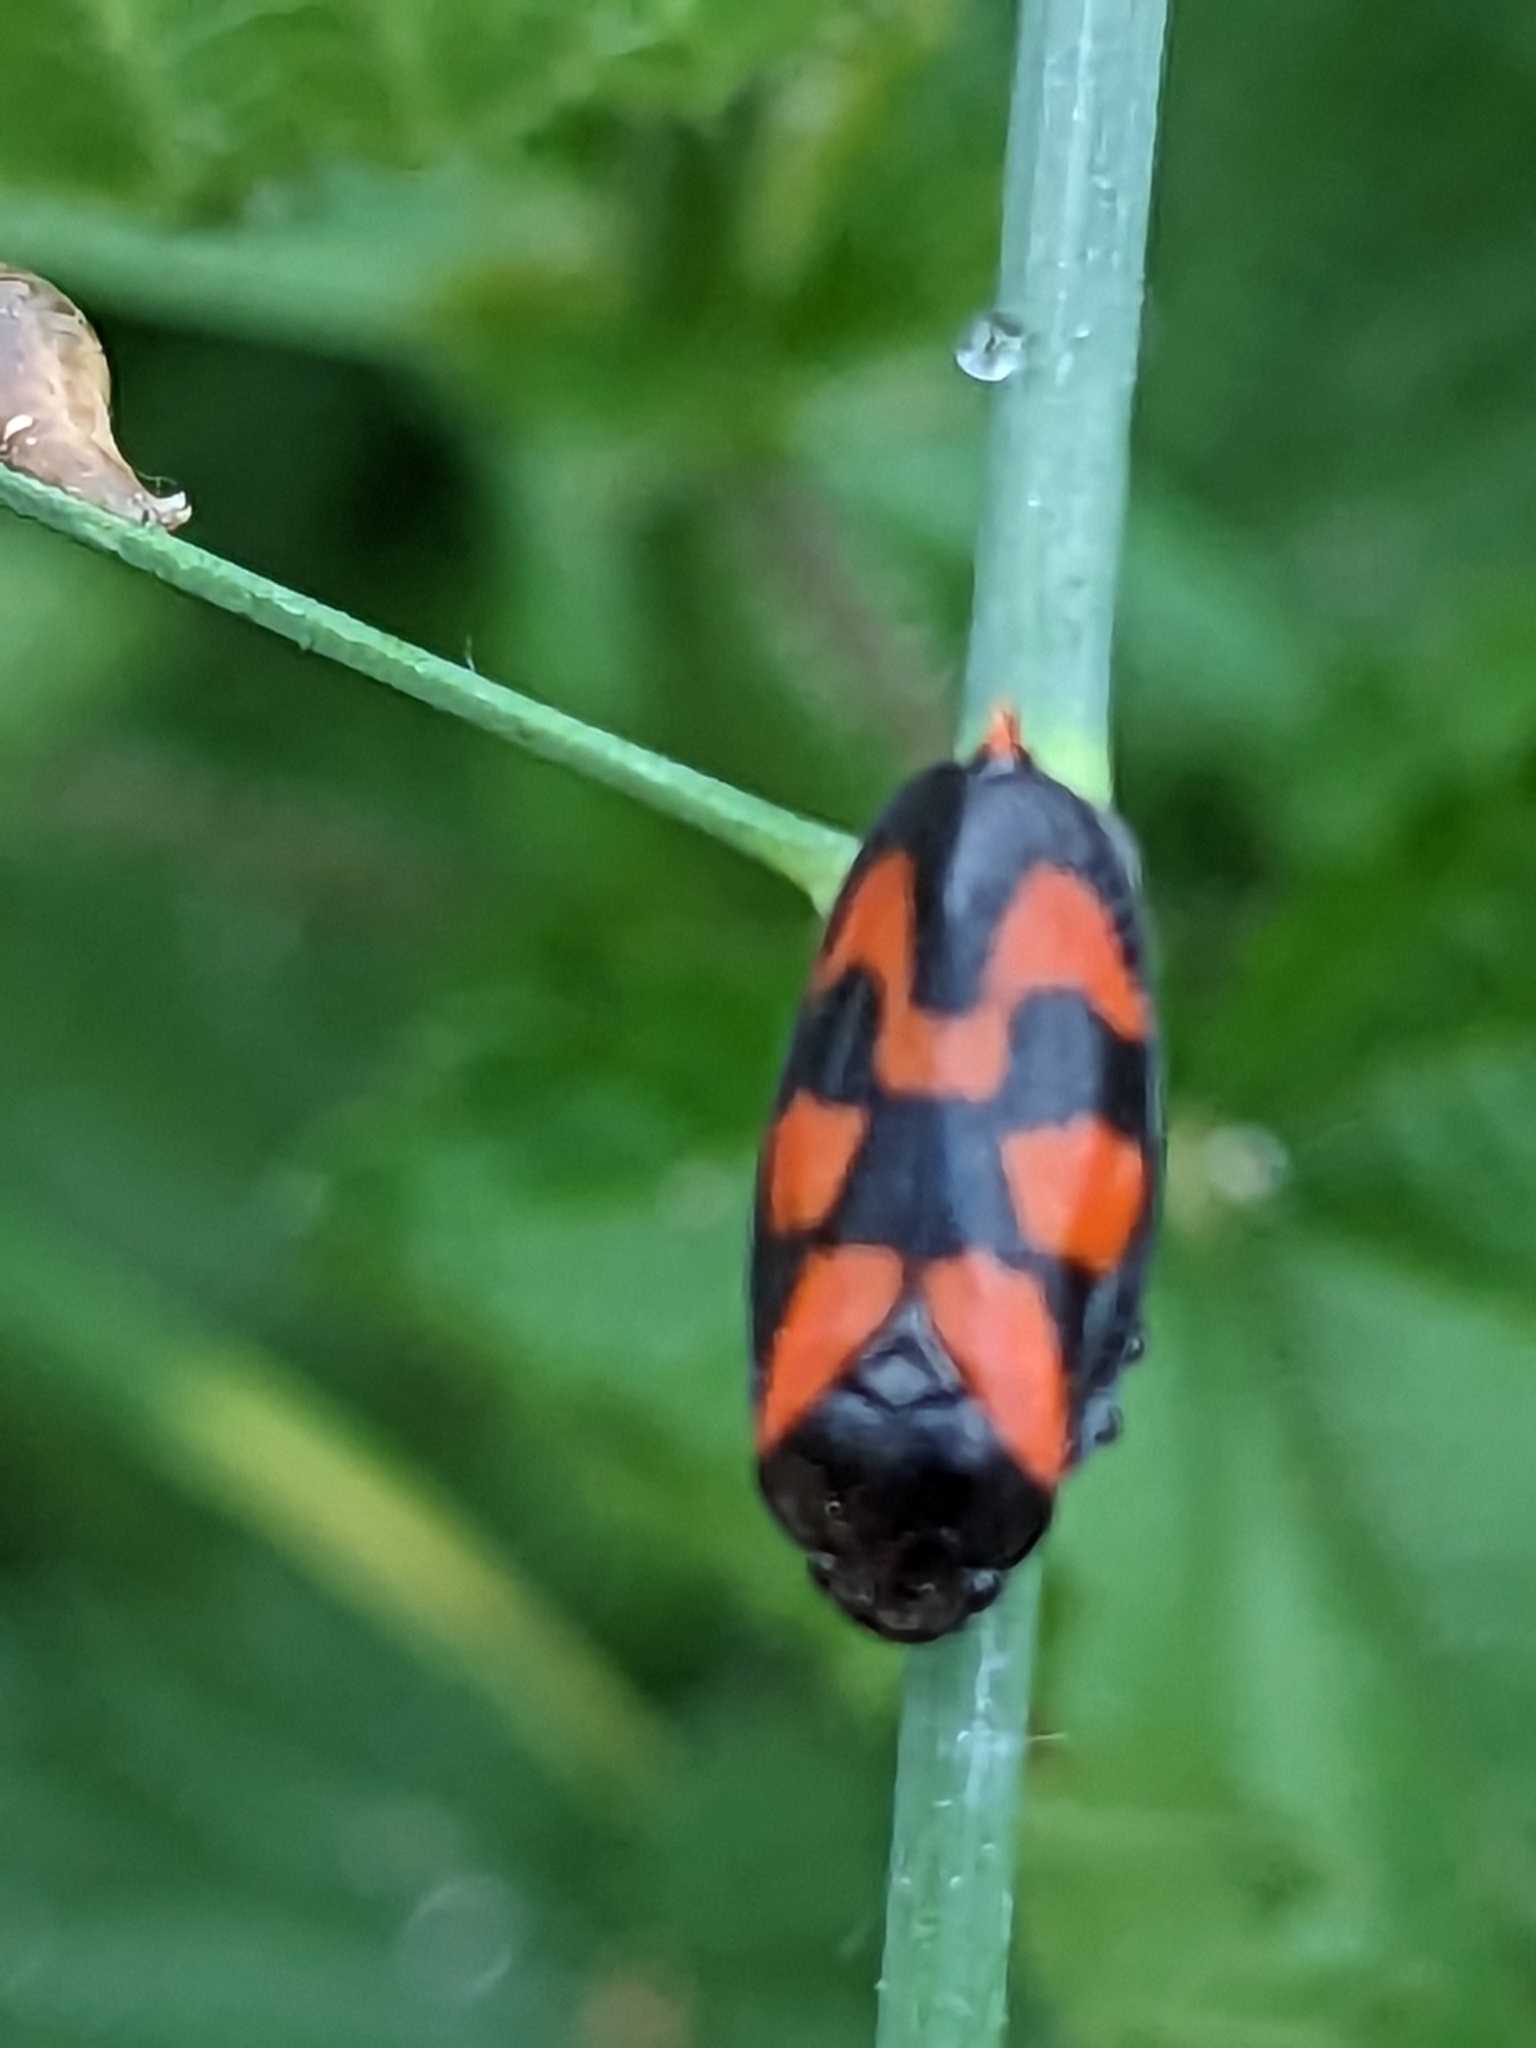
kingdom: Animalia
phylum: Arthropoda
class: Insecta
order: Hemiptera
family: Cercopidae
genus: Cercopis
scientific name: Cercopis vulnerata
